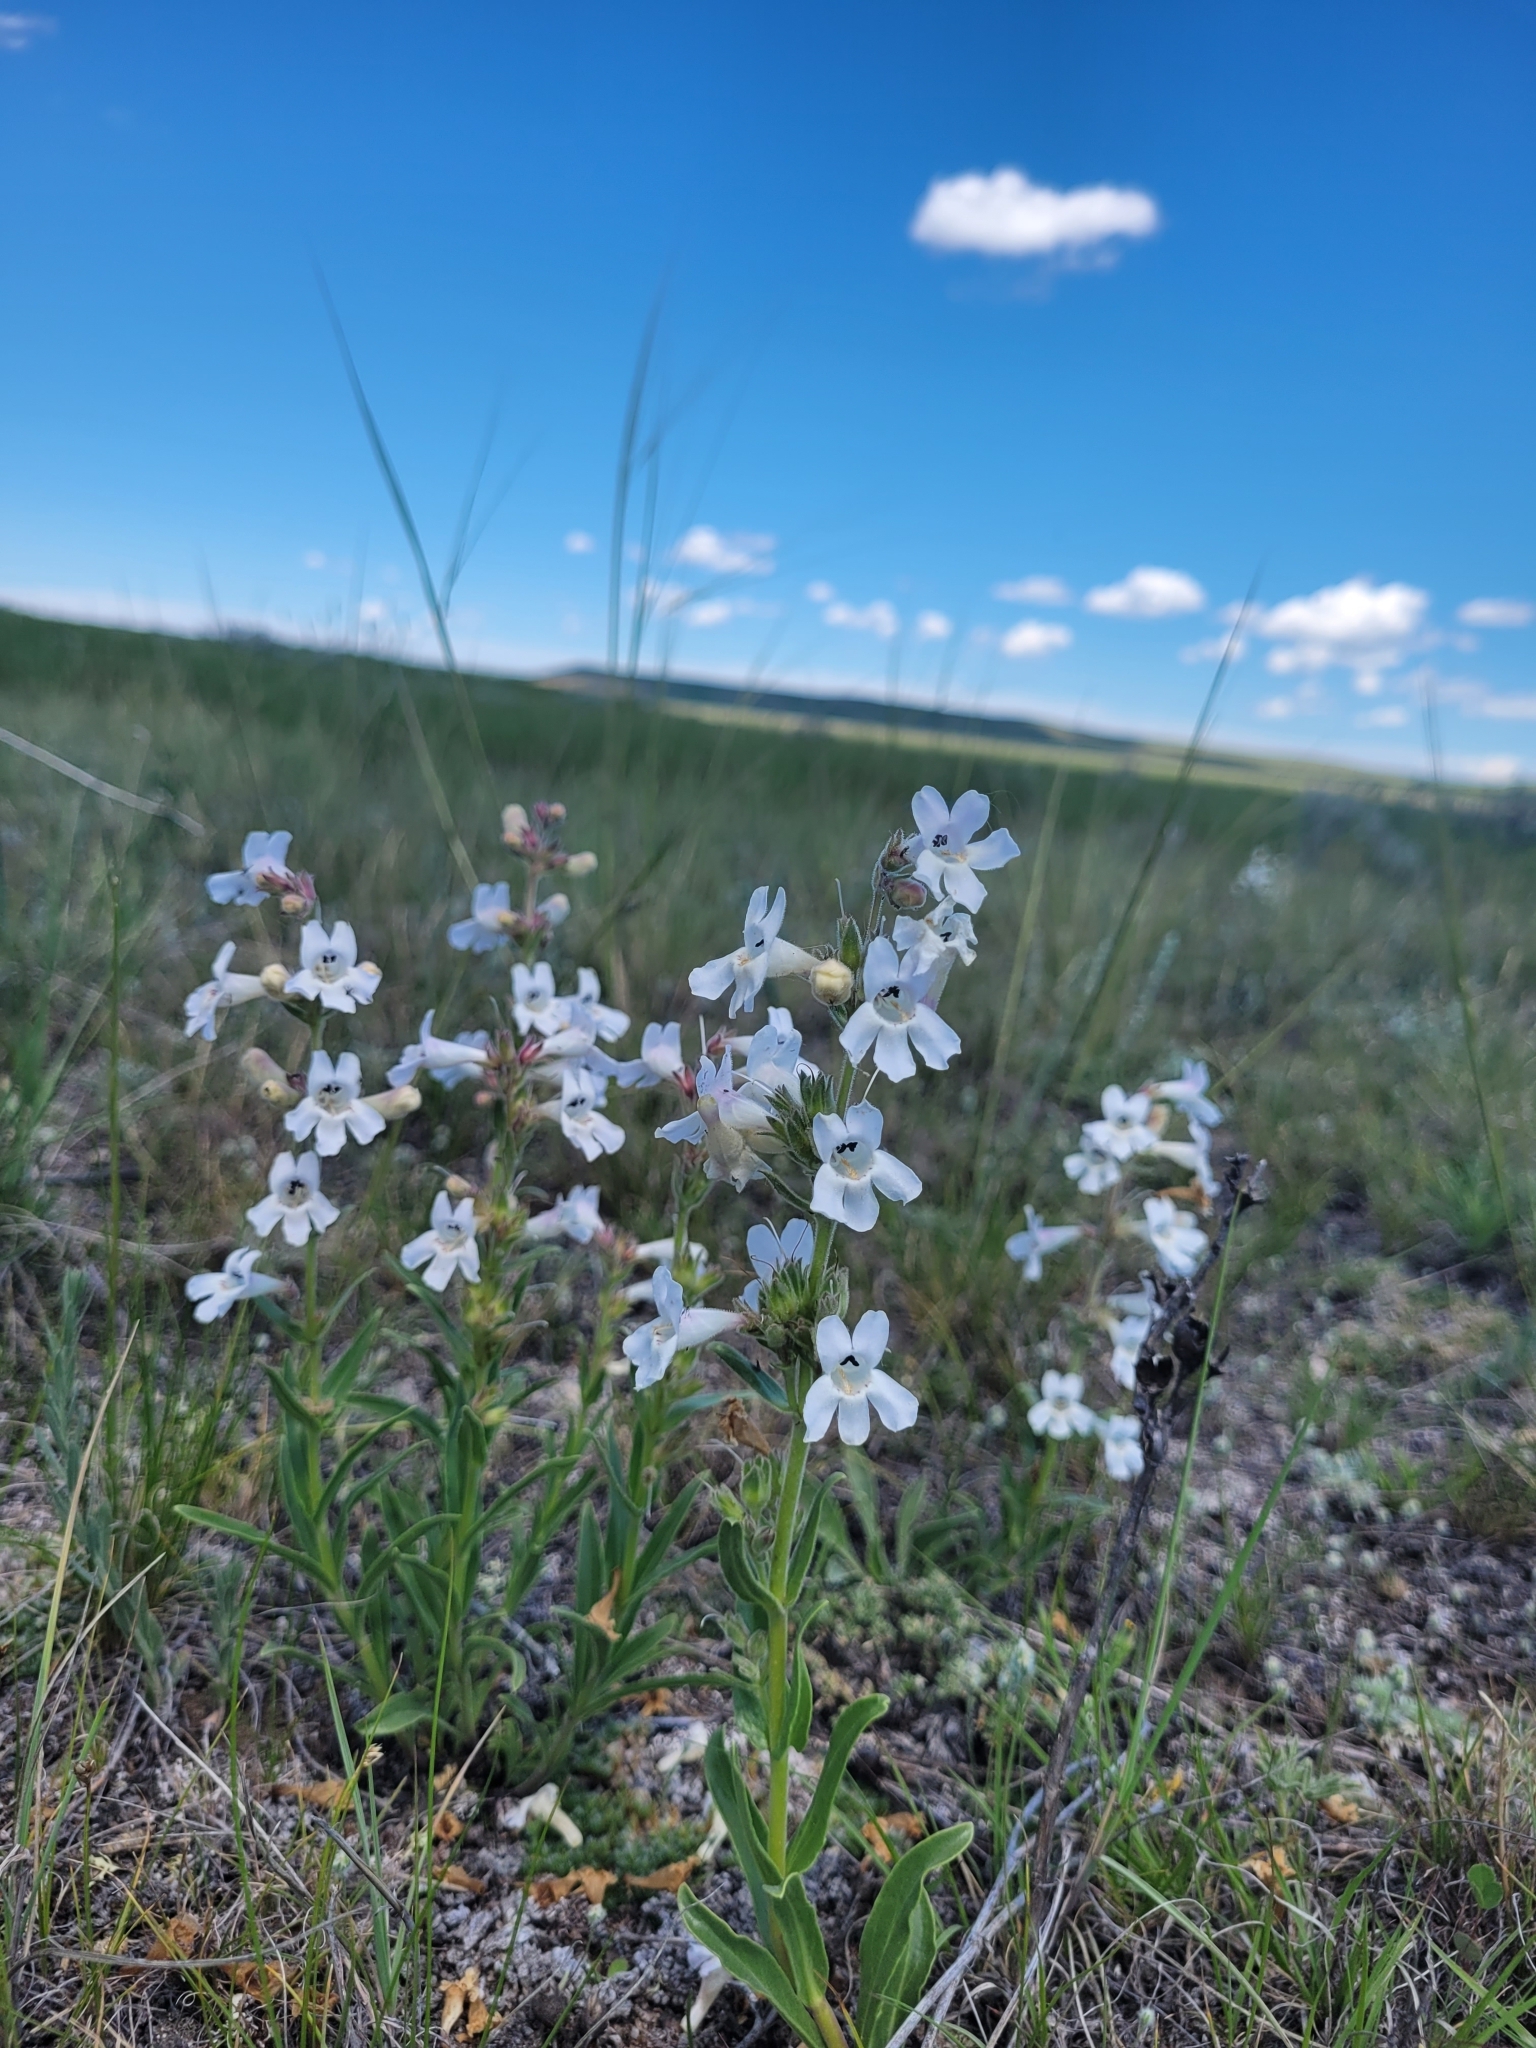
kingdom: Plantae
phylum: Tracheophyta
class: Magnoliopsida
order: Lamiales
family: Plantaginaceae
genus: Penstemon
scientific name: Penstemon albidus
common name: White beardtongue
